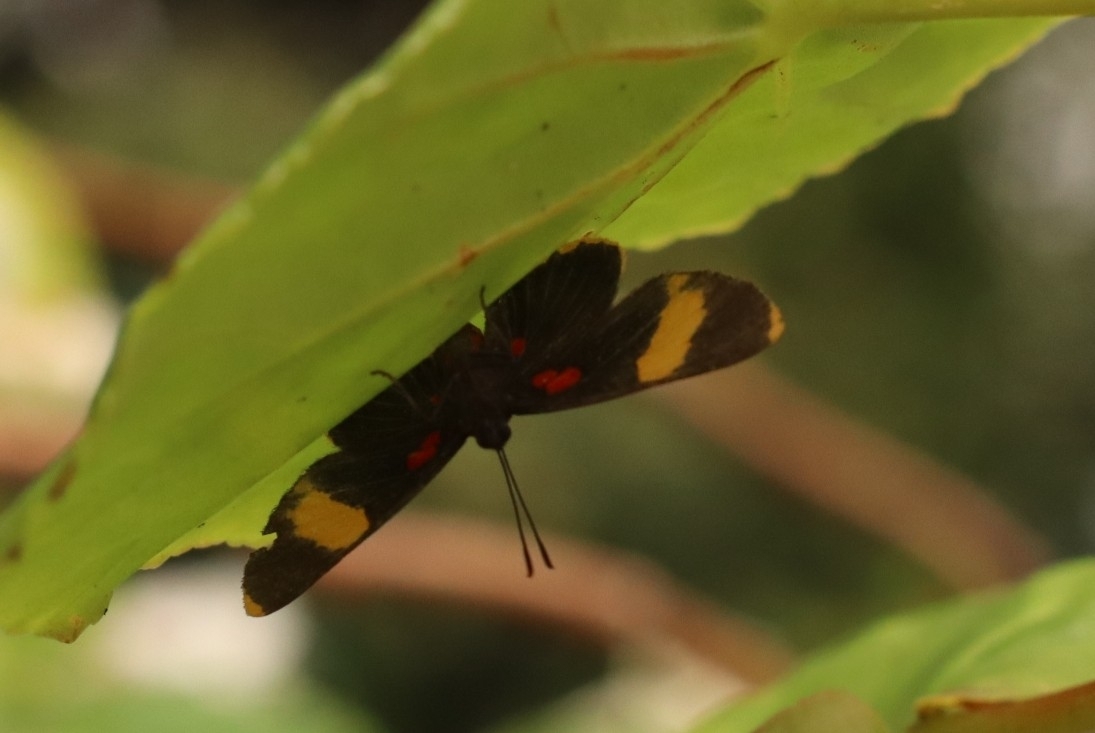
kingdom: Animalia
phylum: Arthropoda
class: Insecta
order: Lepidoptera
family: Lycaenidae
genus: Melanis
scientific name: Melanis electron
